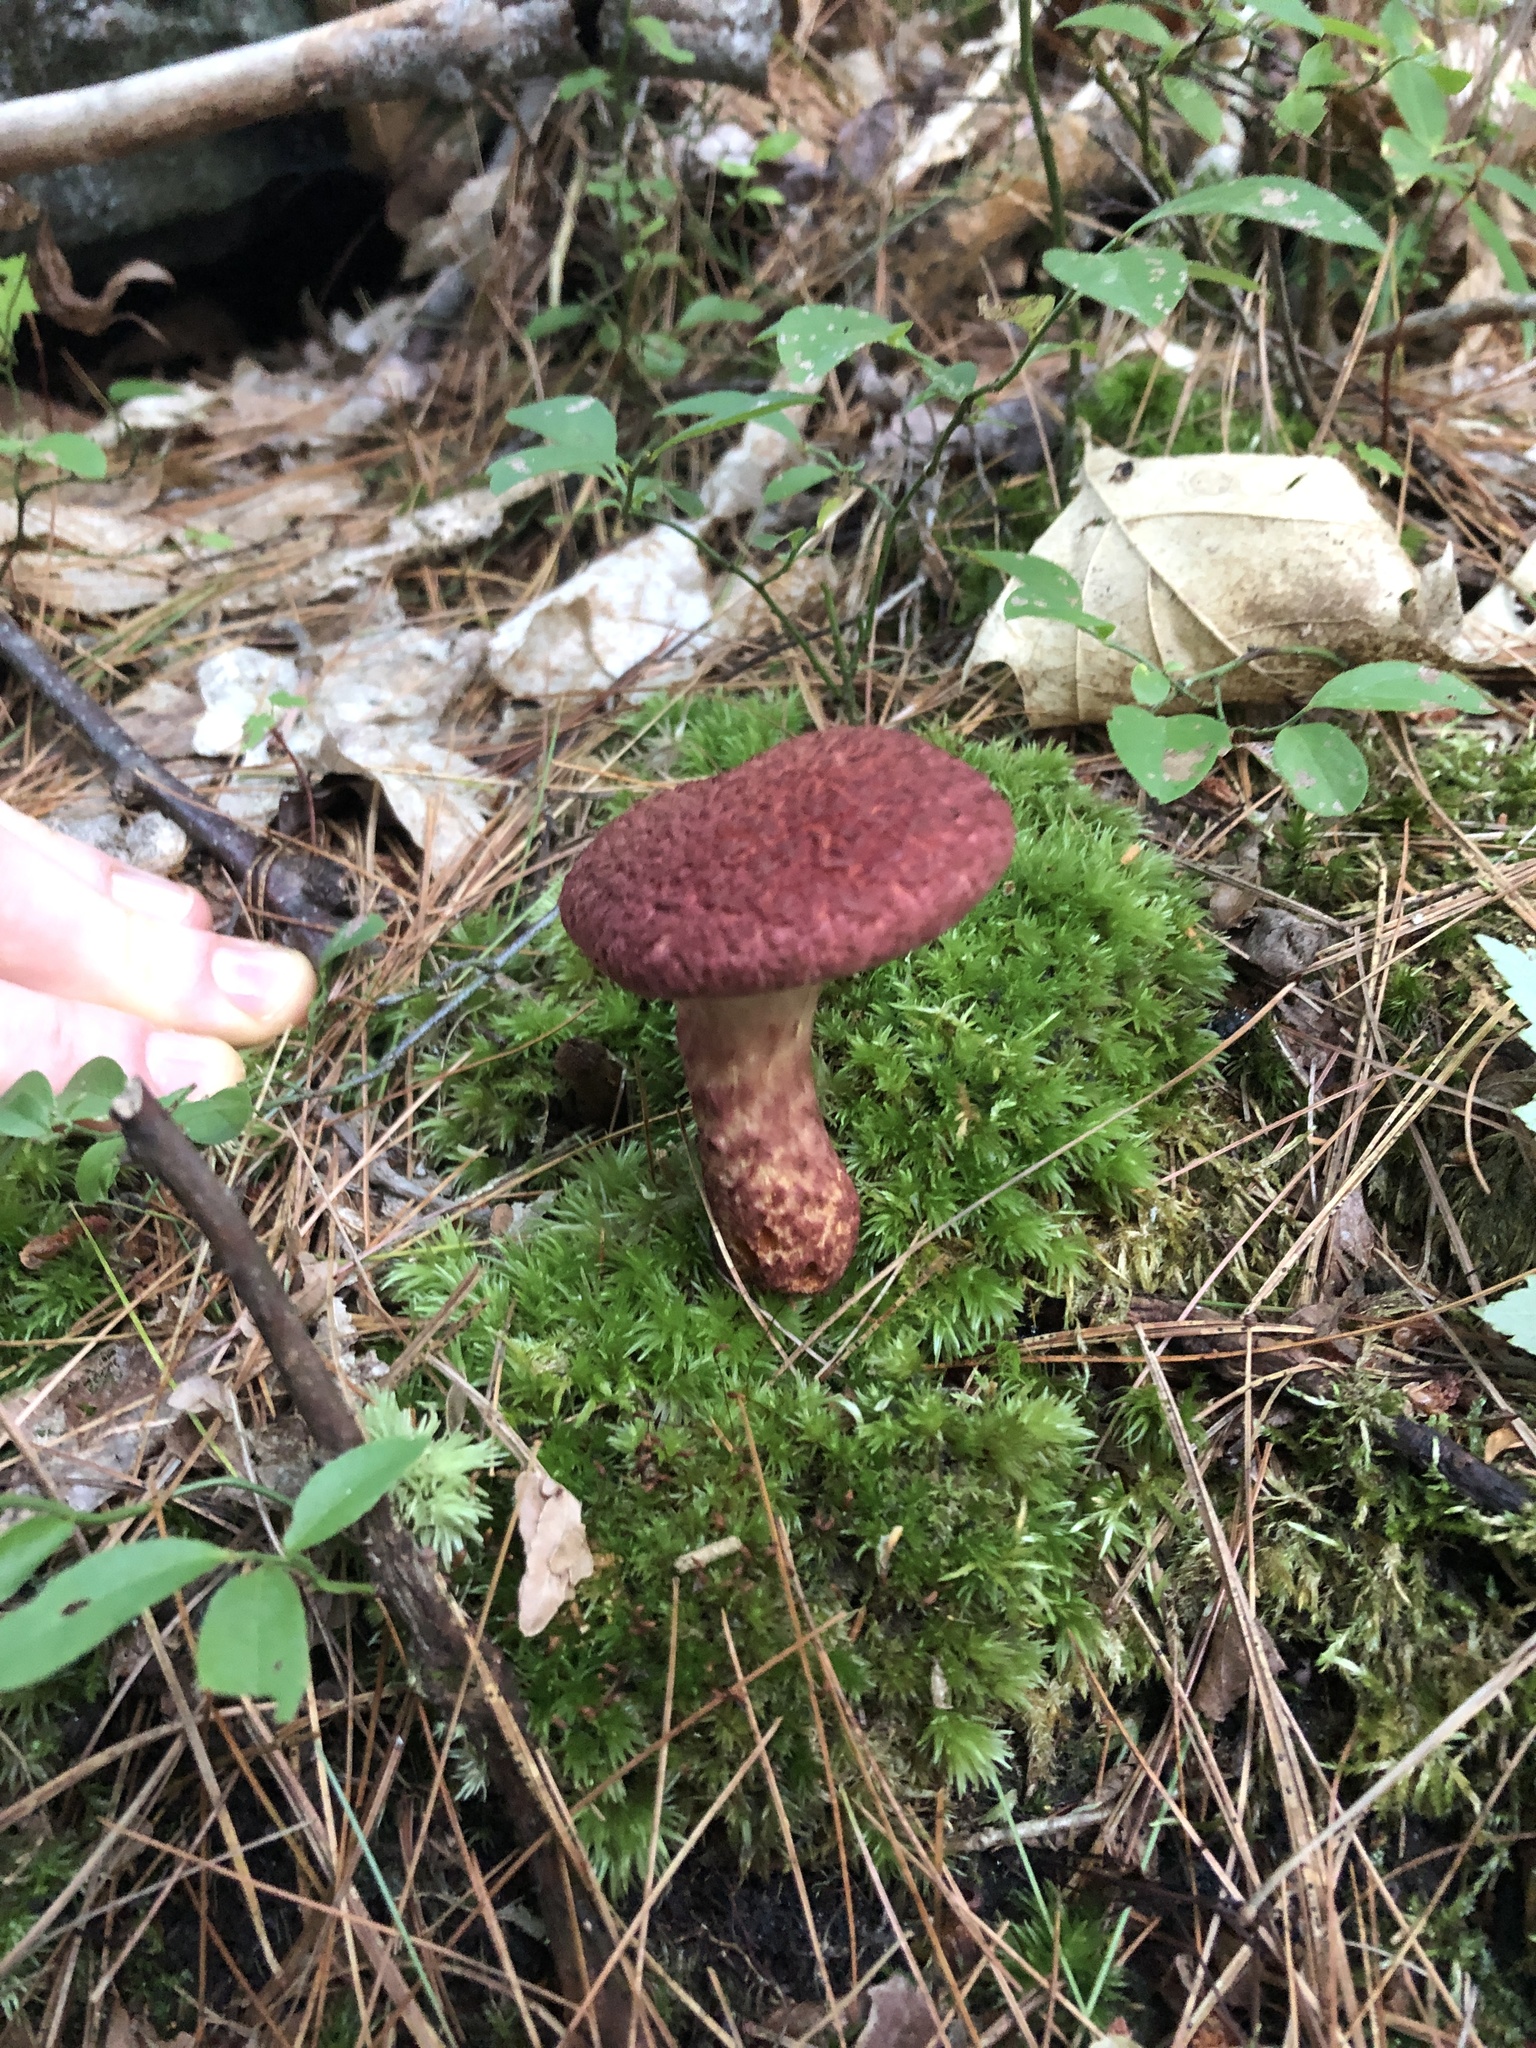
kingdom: Fungi
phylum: Basidiomycota
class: Agaricomycetes
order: Boletales
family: Suillaceae
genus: Suillus
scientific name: Suillus spraguei
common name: Painted suillus
